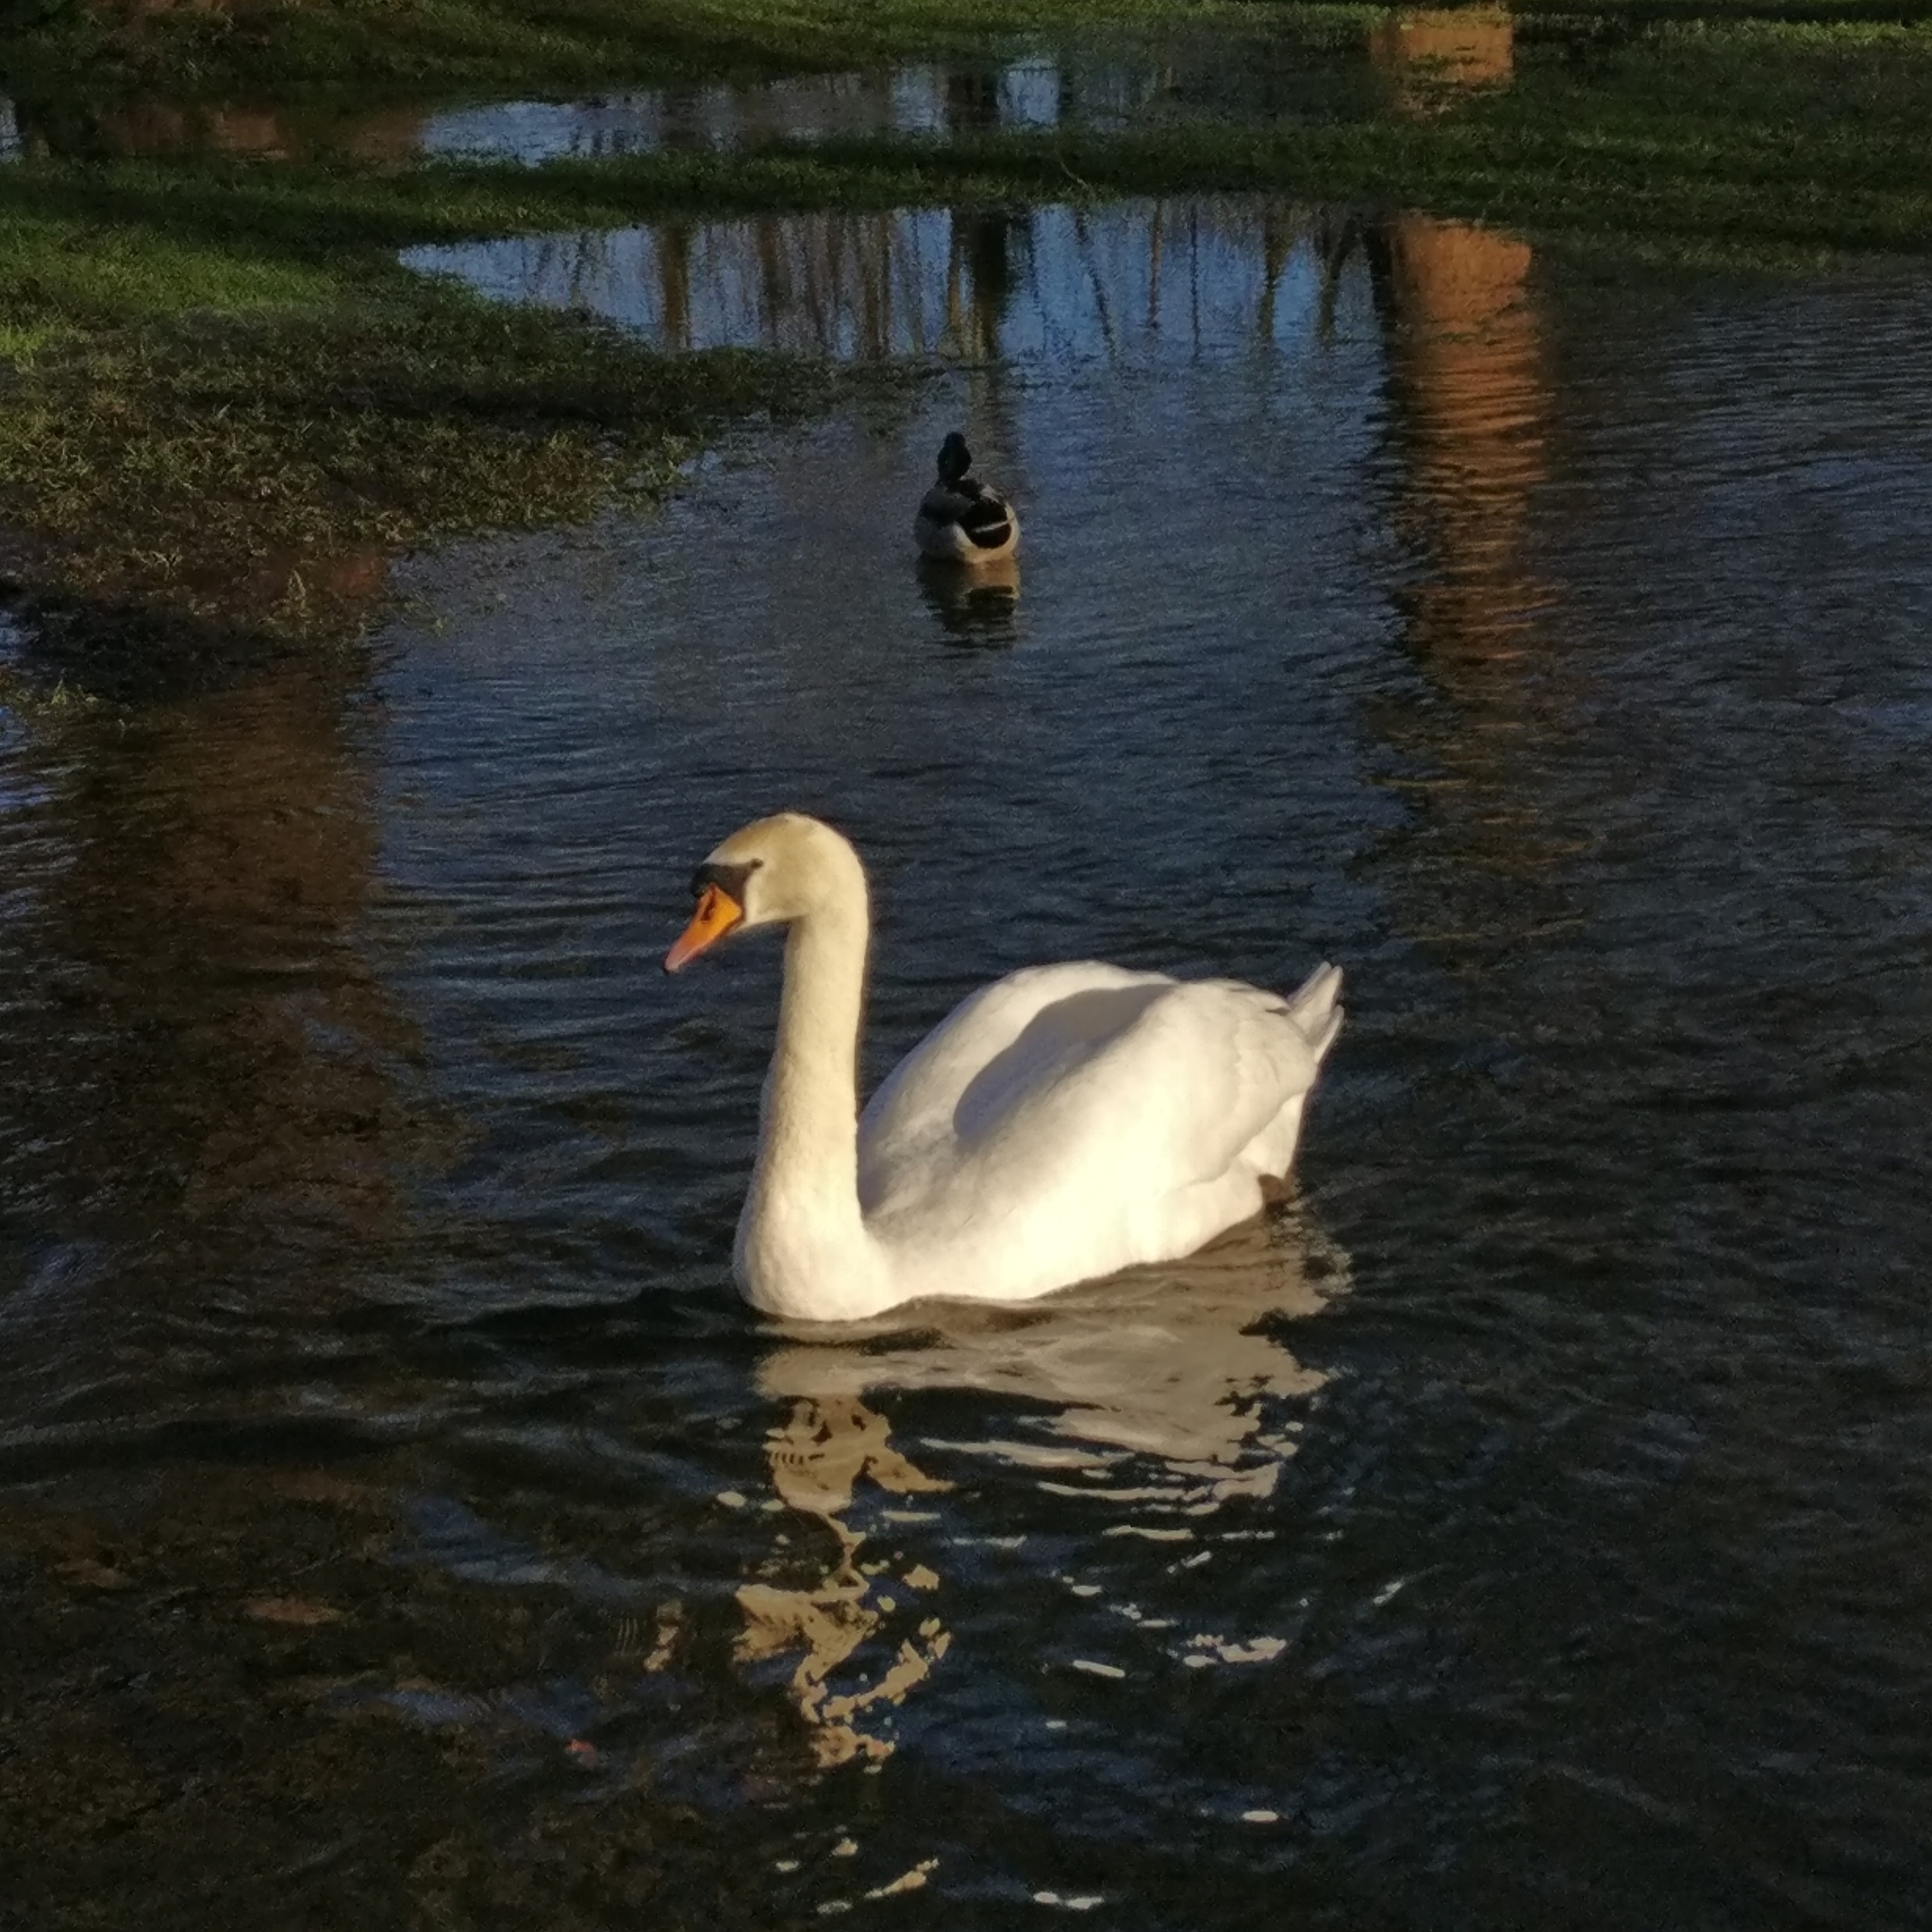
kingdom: Animalia
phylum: Chordata
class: Aves
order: Anseriformes
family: Anatidae
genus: Cygnus
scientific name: Cygnus olor
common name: Mute swan
